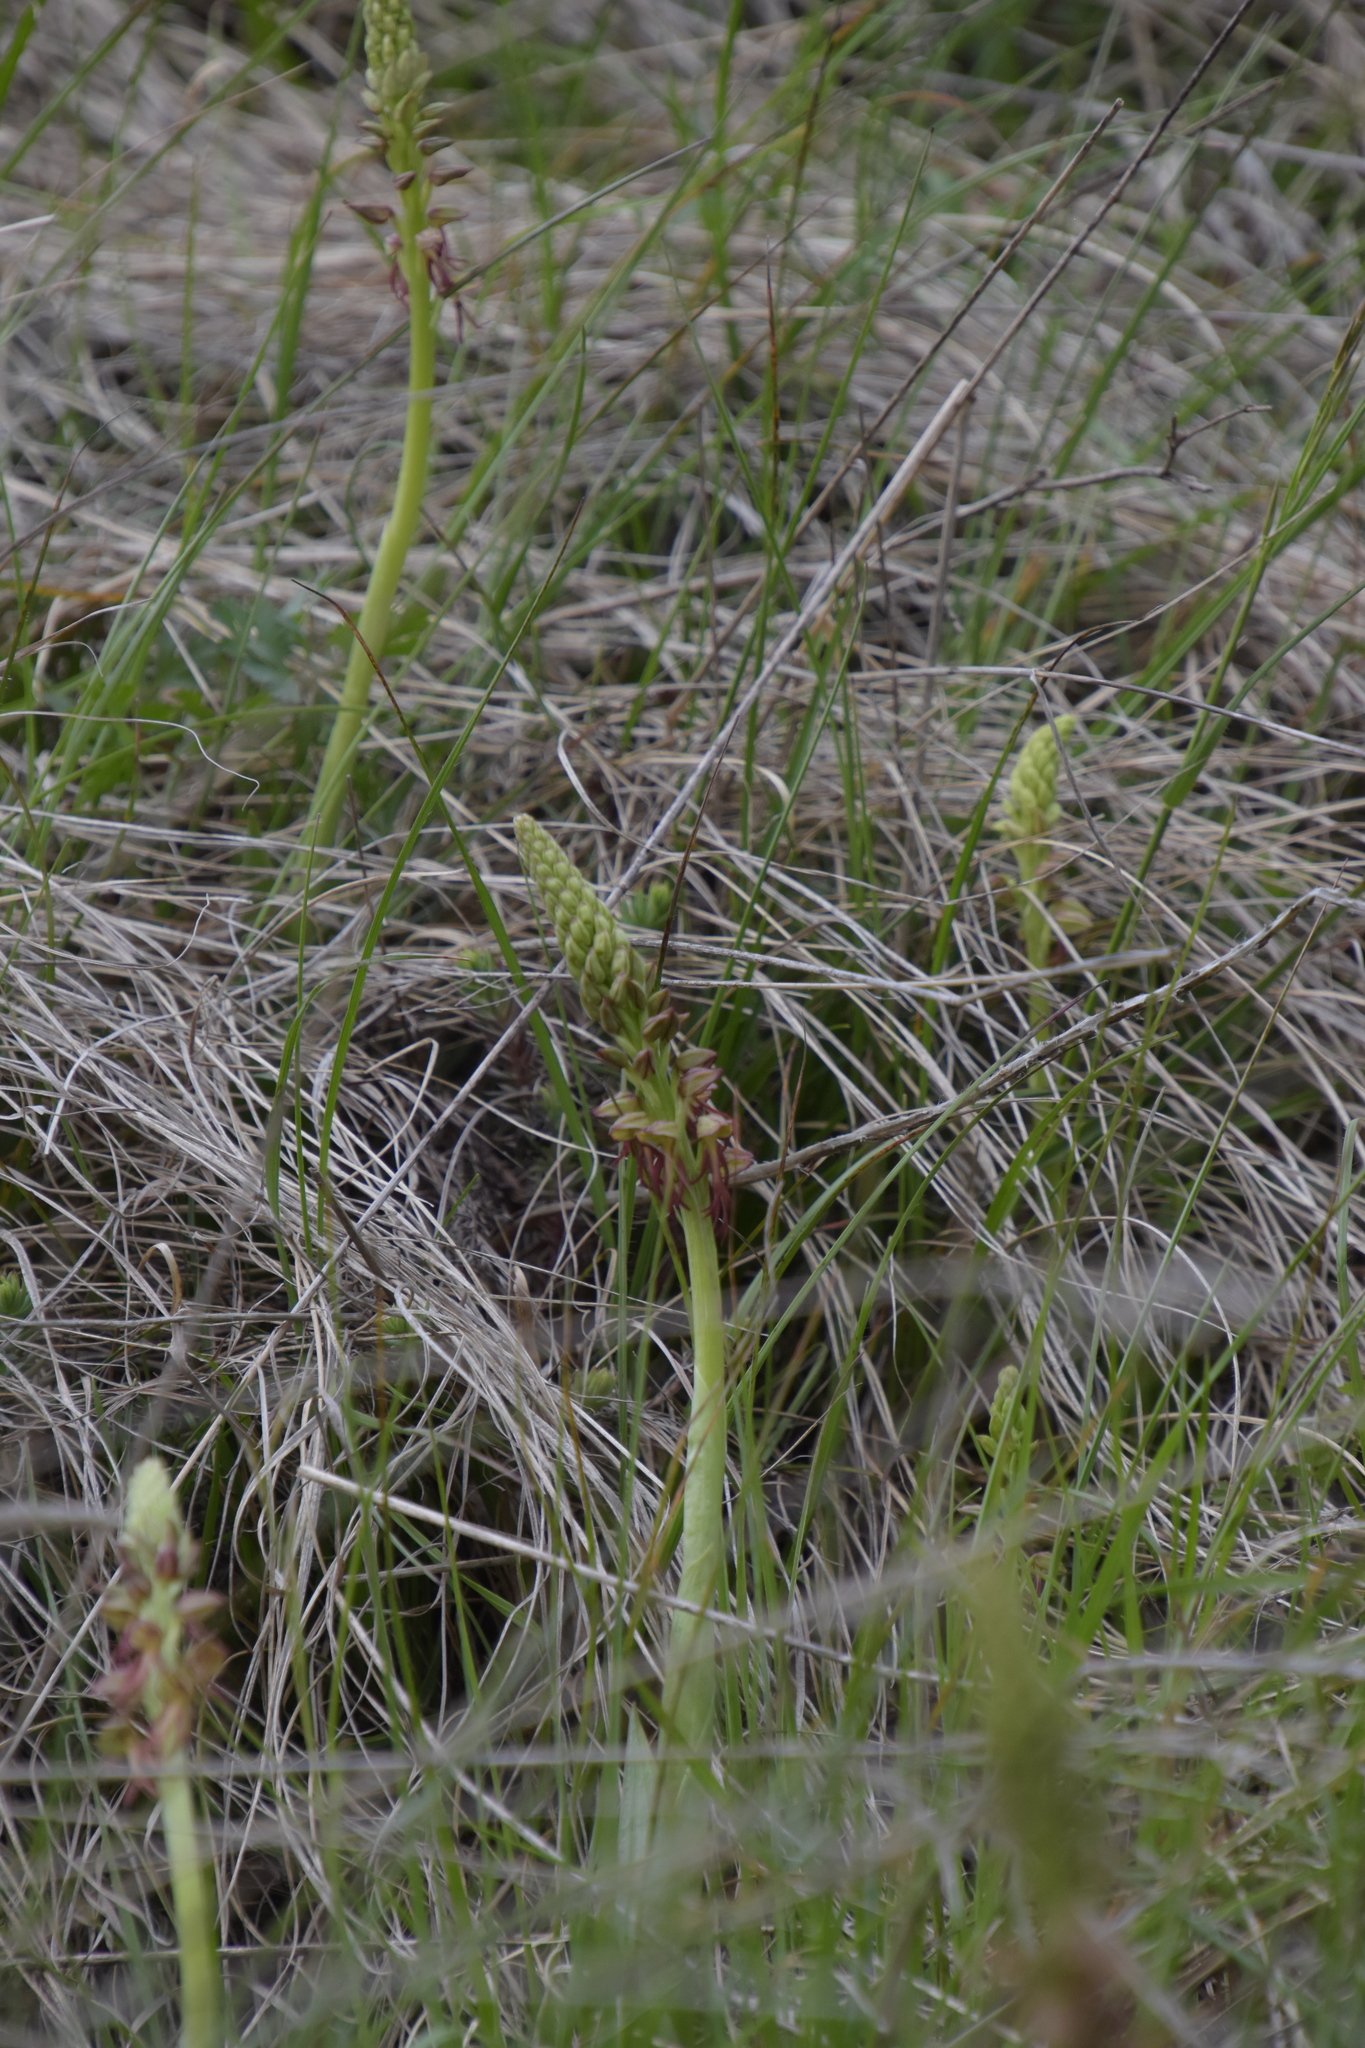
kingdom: Plantae
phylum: Tracheophyta
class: Liliopsida
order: Asparagales
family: Orchidaceae
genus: Orchis
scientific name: Orchis anthropophora
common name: Man orchid
